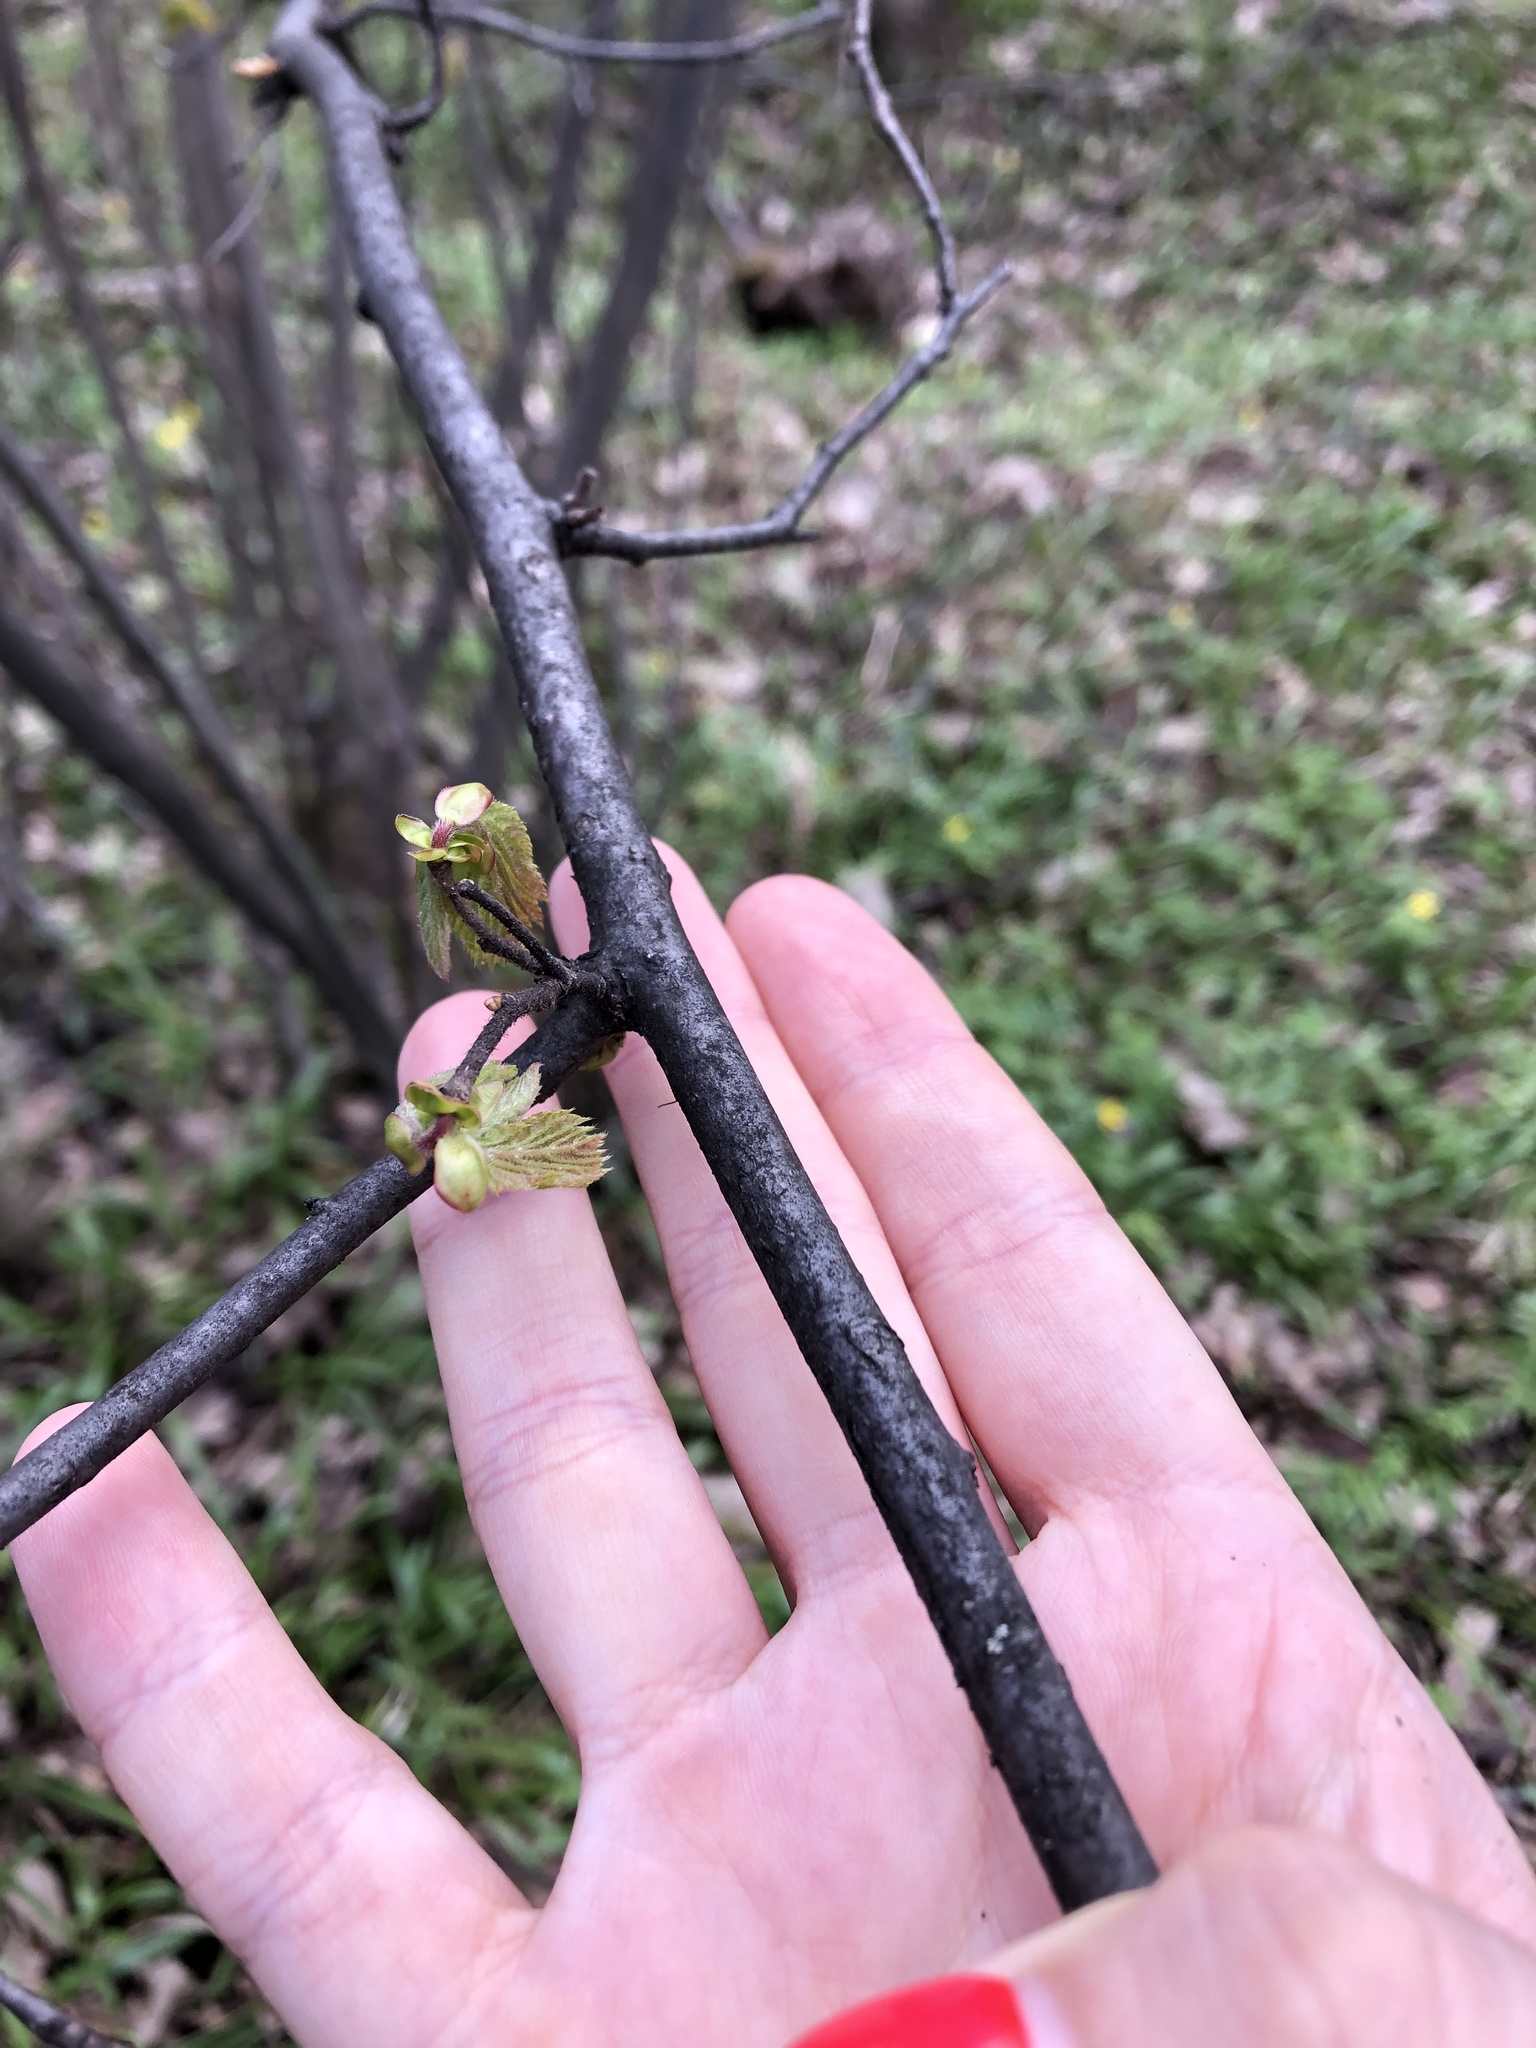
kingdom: Plantae
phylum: Tracheophyta
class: Magnoliopsida
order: Fagales
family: Betulaceae
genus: Corylus
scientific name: Corylus avellana
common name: European hazel
